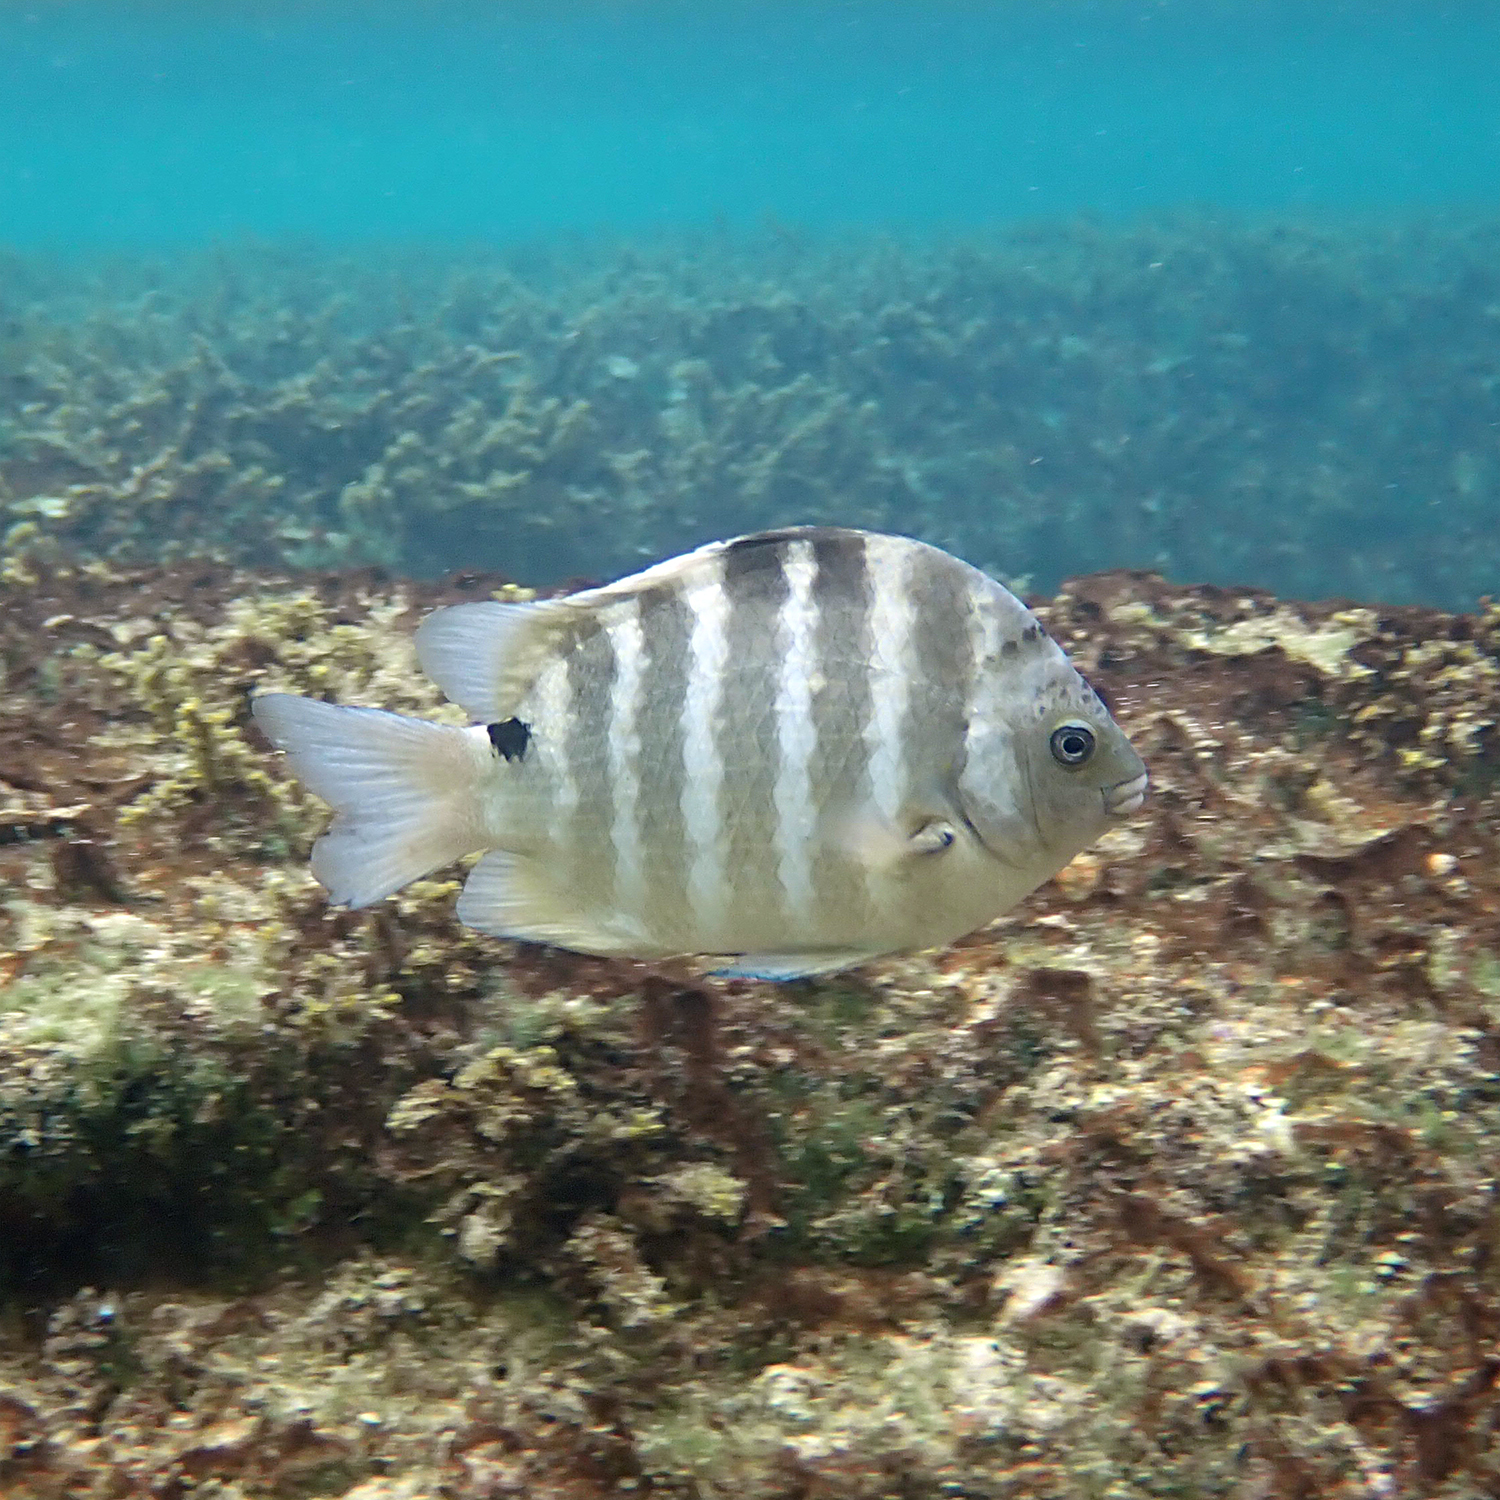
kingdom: Animalia
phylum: Chordata
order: Perciformes
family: Pomacentridae
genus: Abudefduf
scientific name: Abudefduf sordidus
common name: Blackspot sergeant
